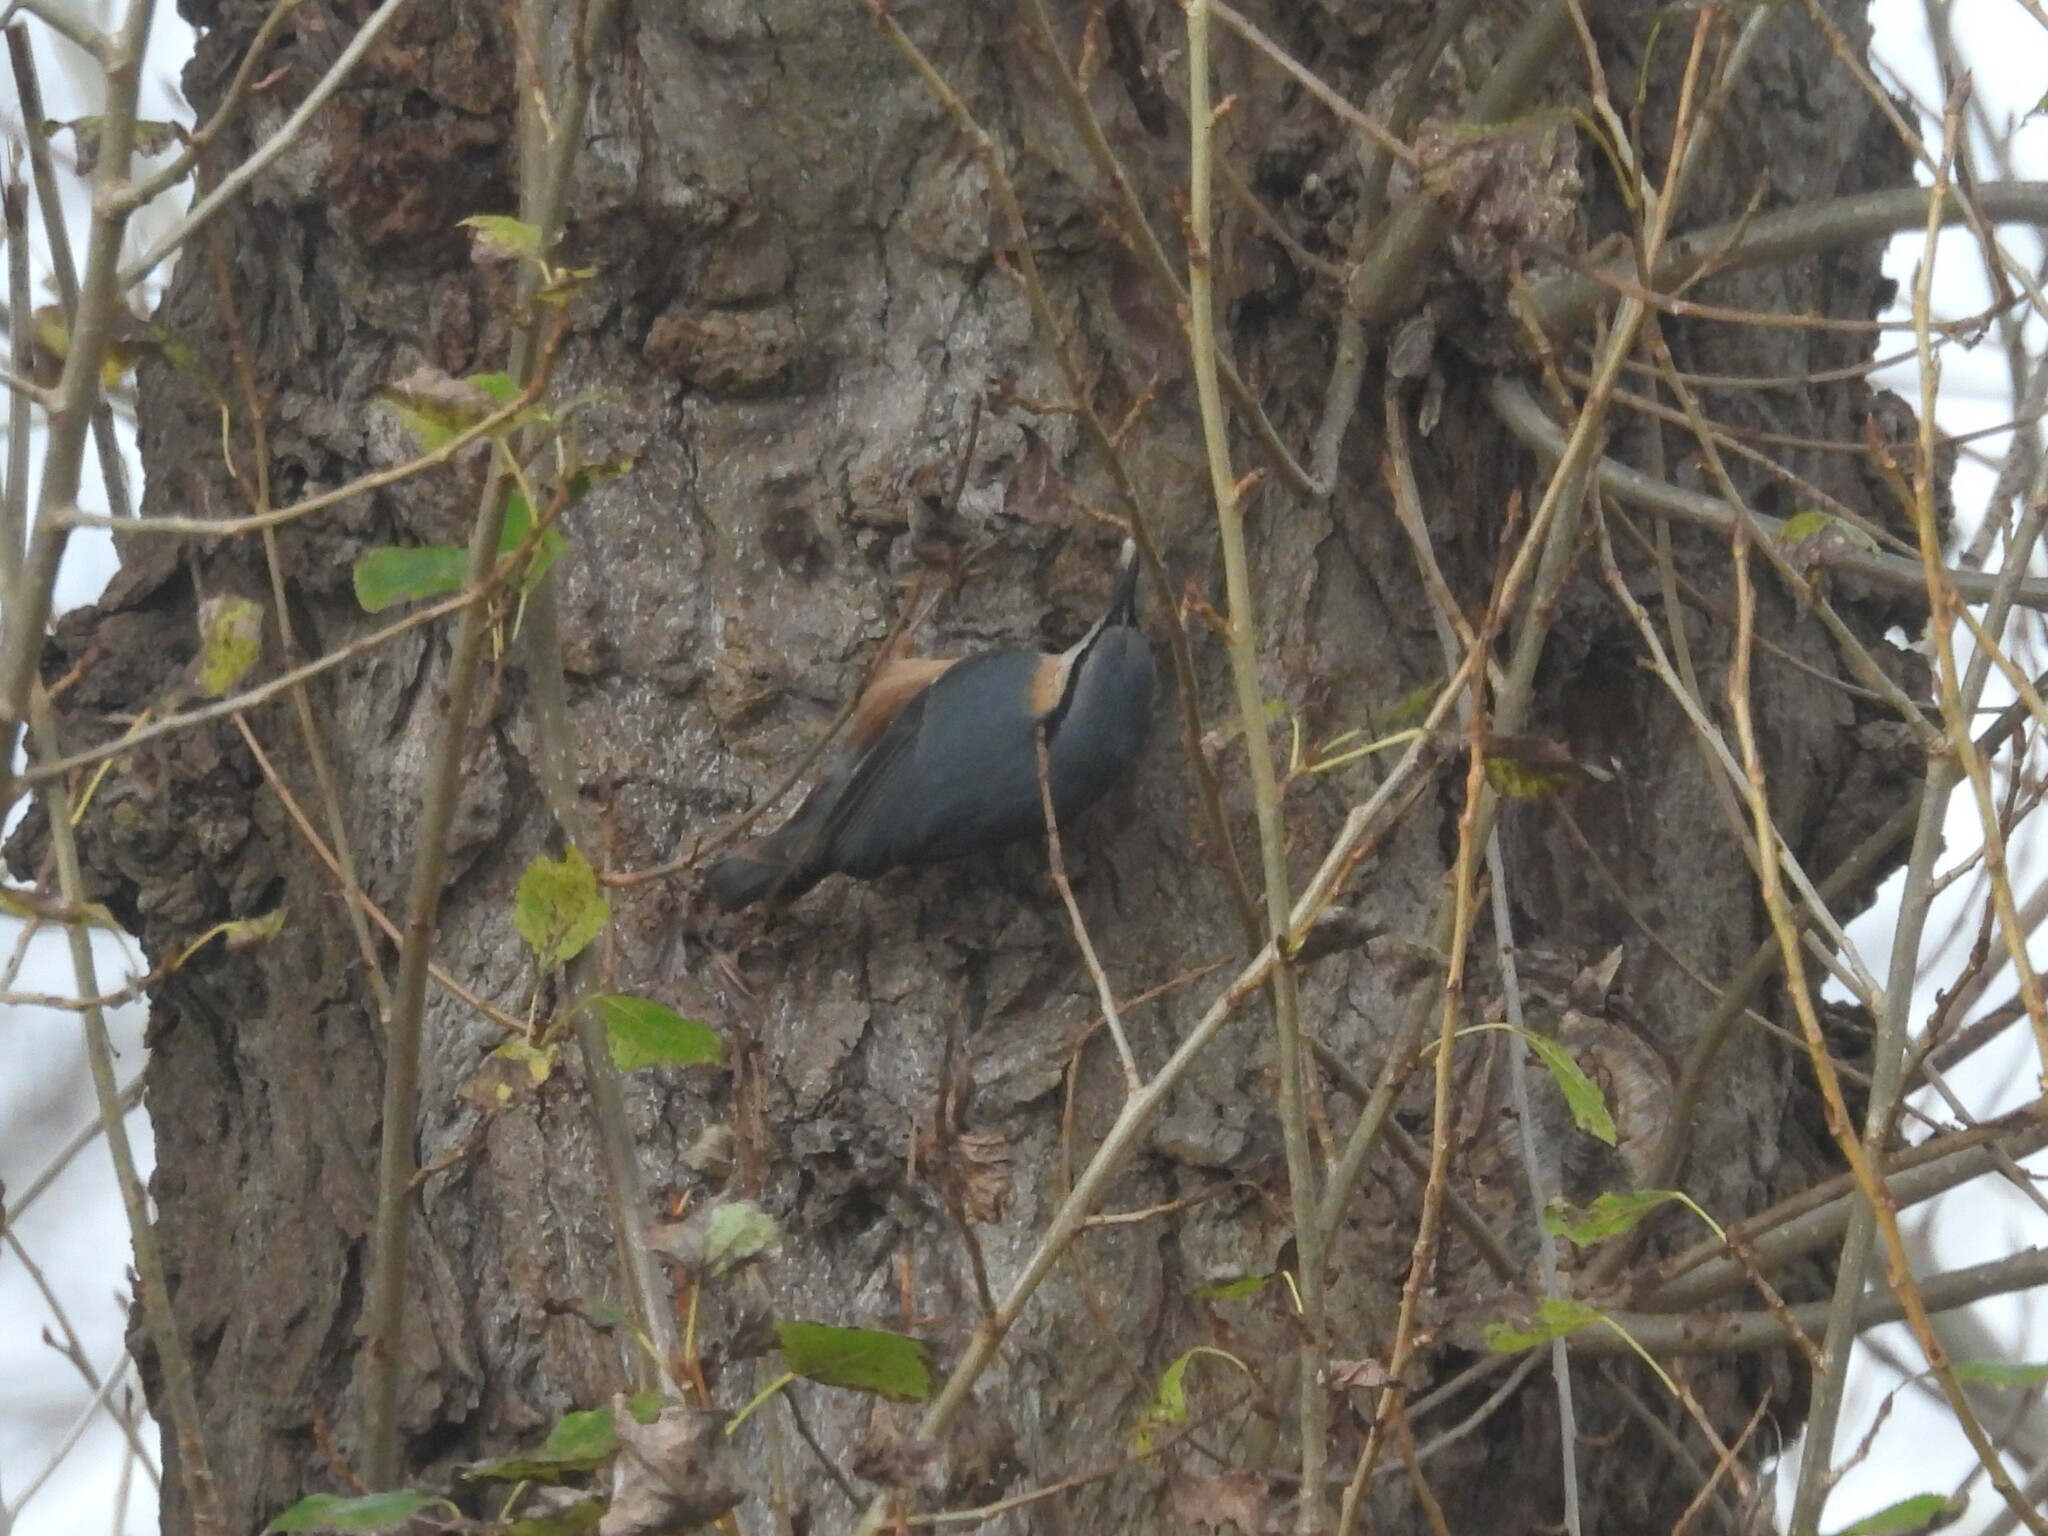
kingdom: Animalia
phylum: Chordata
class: Aves
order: Passeriformes
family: Sittidae
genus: Sitta
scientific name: Sitta europaea
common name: Eurasian nuthatch
